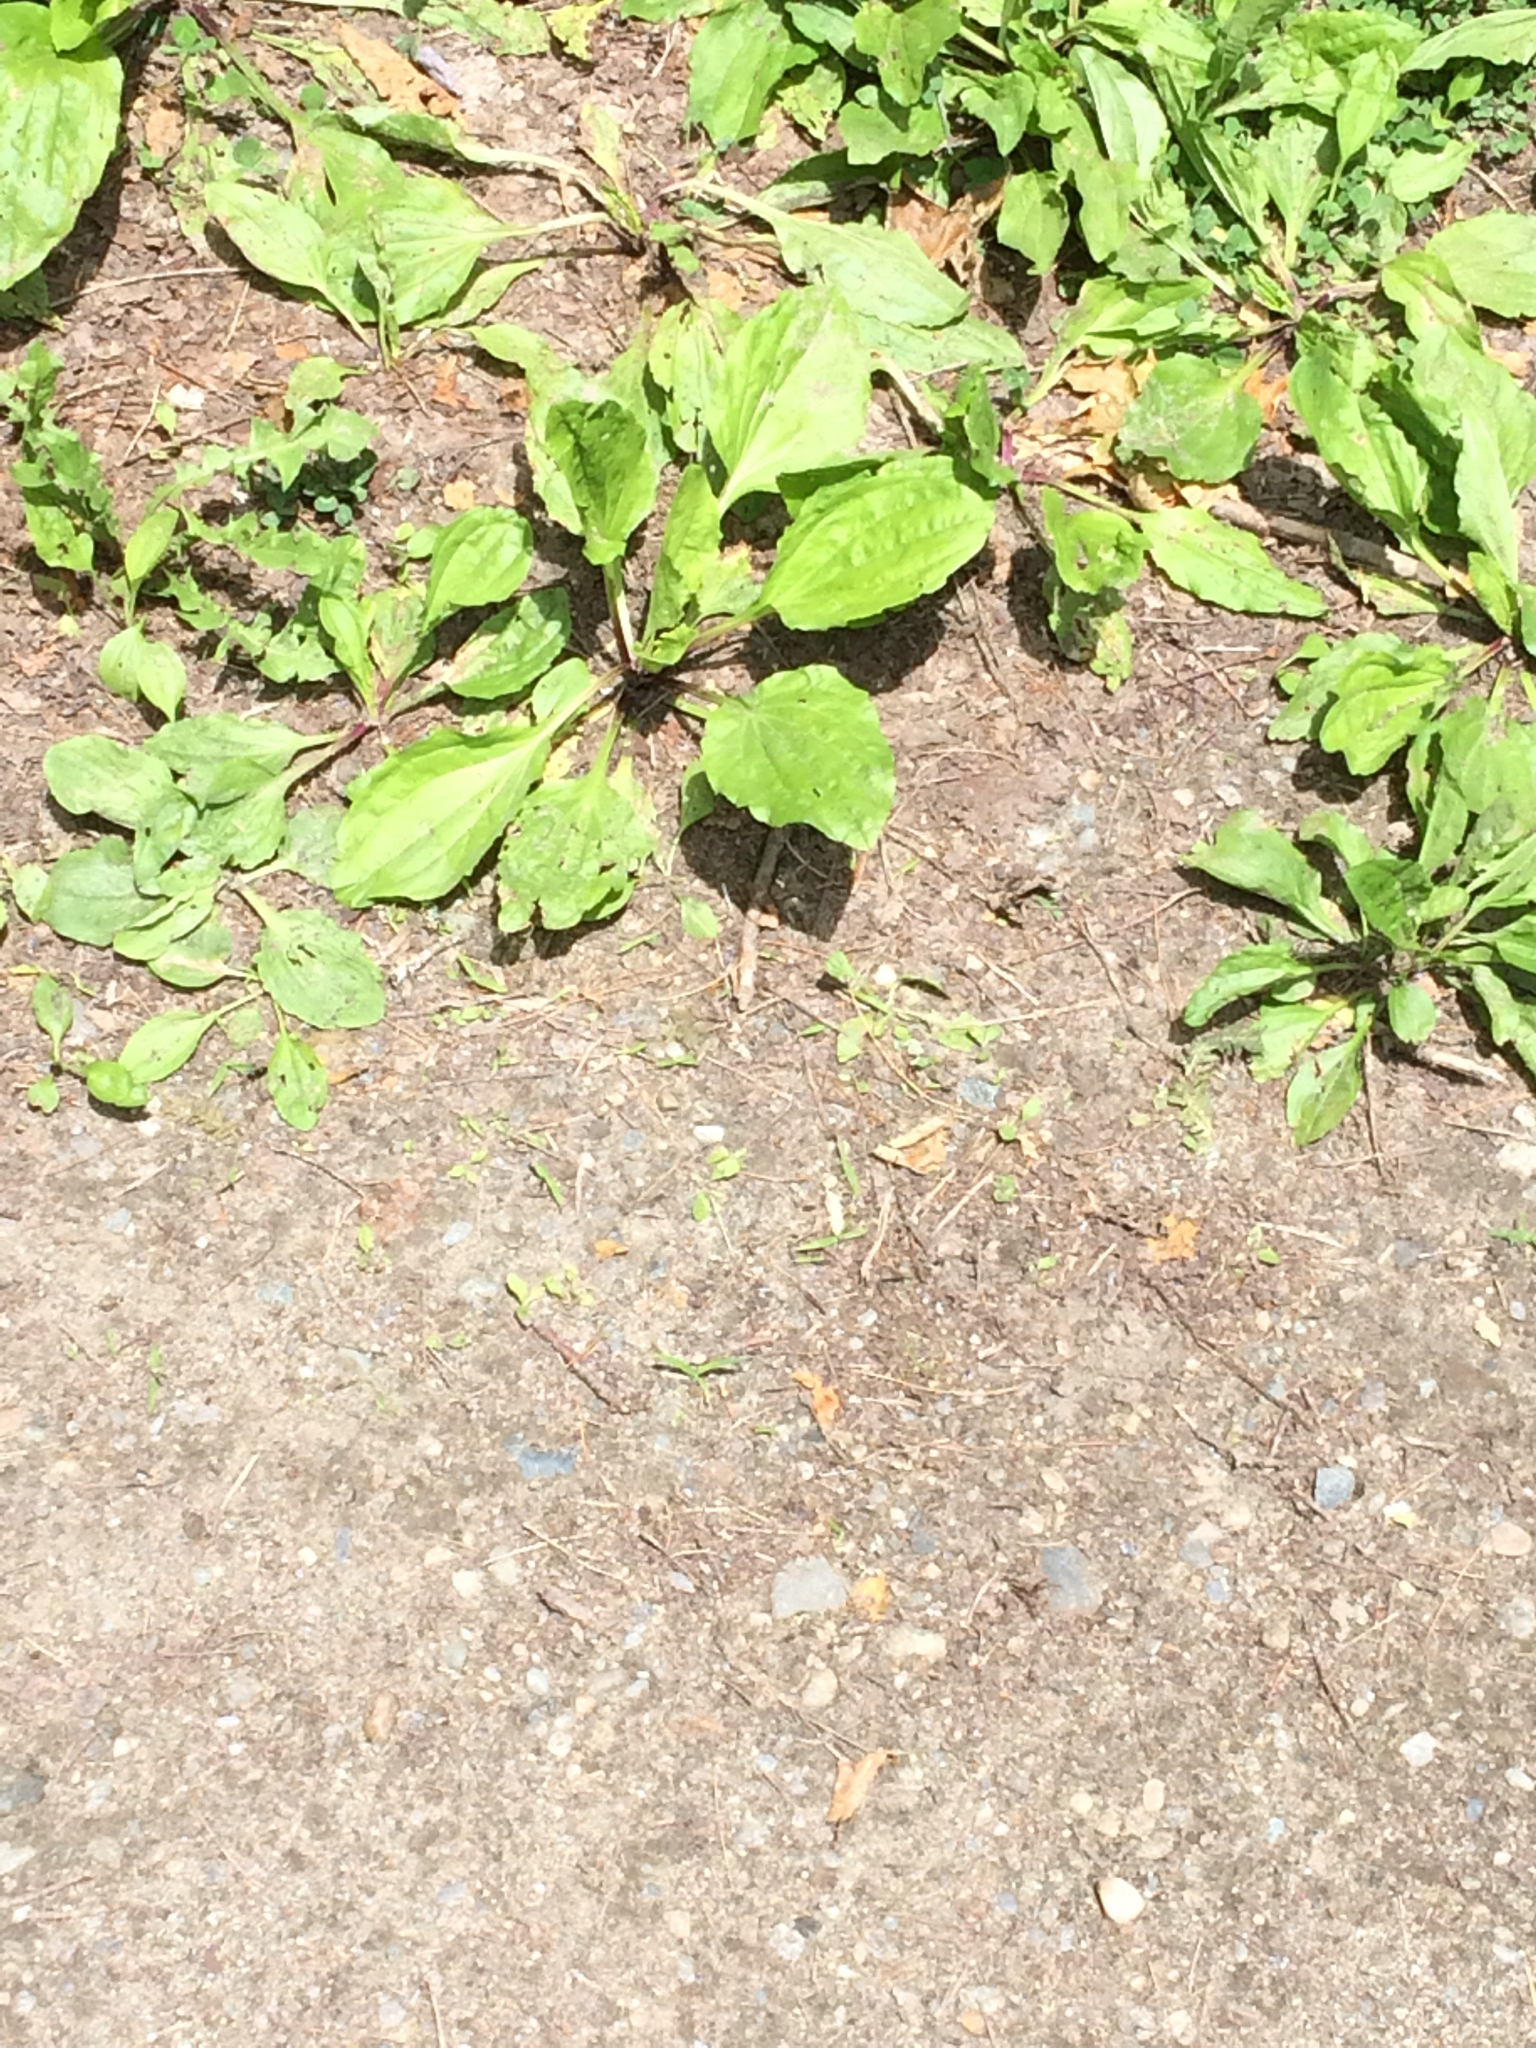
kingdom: Plantae
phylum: Tracheophyta
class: Magnoliopsida
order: Lamiales
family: Plantaginaceae
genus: Plantago
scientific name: Plantago major
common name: Common plantain
